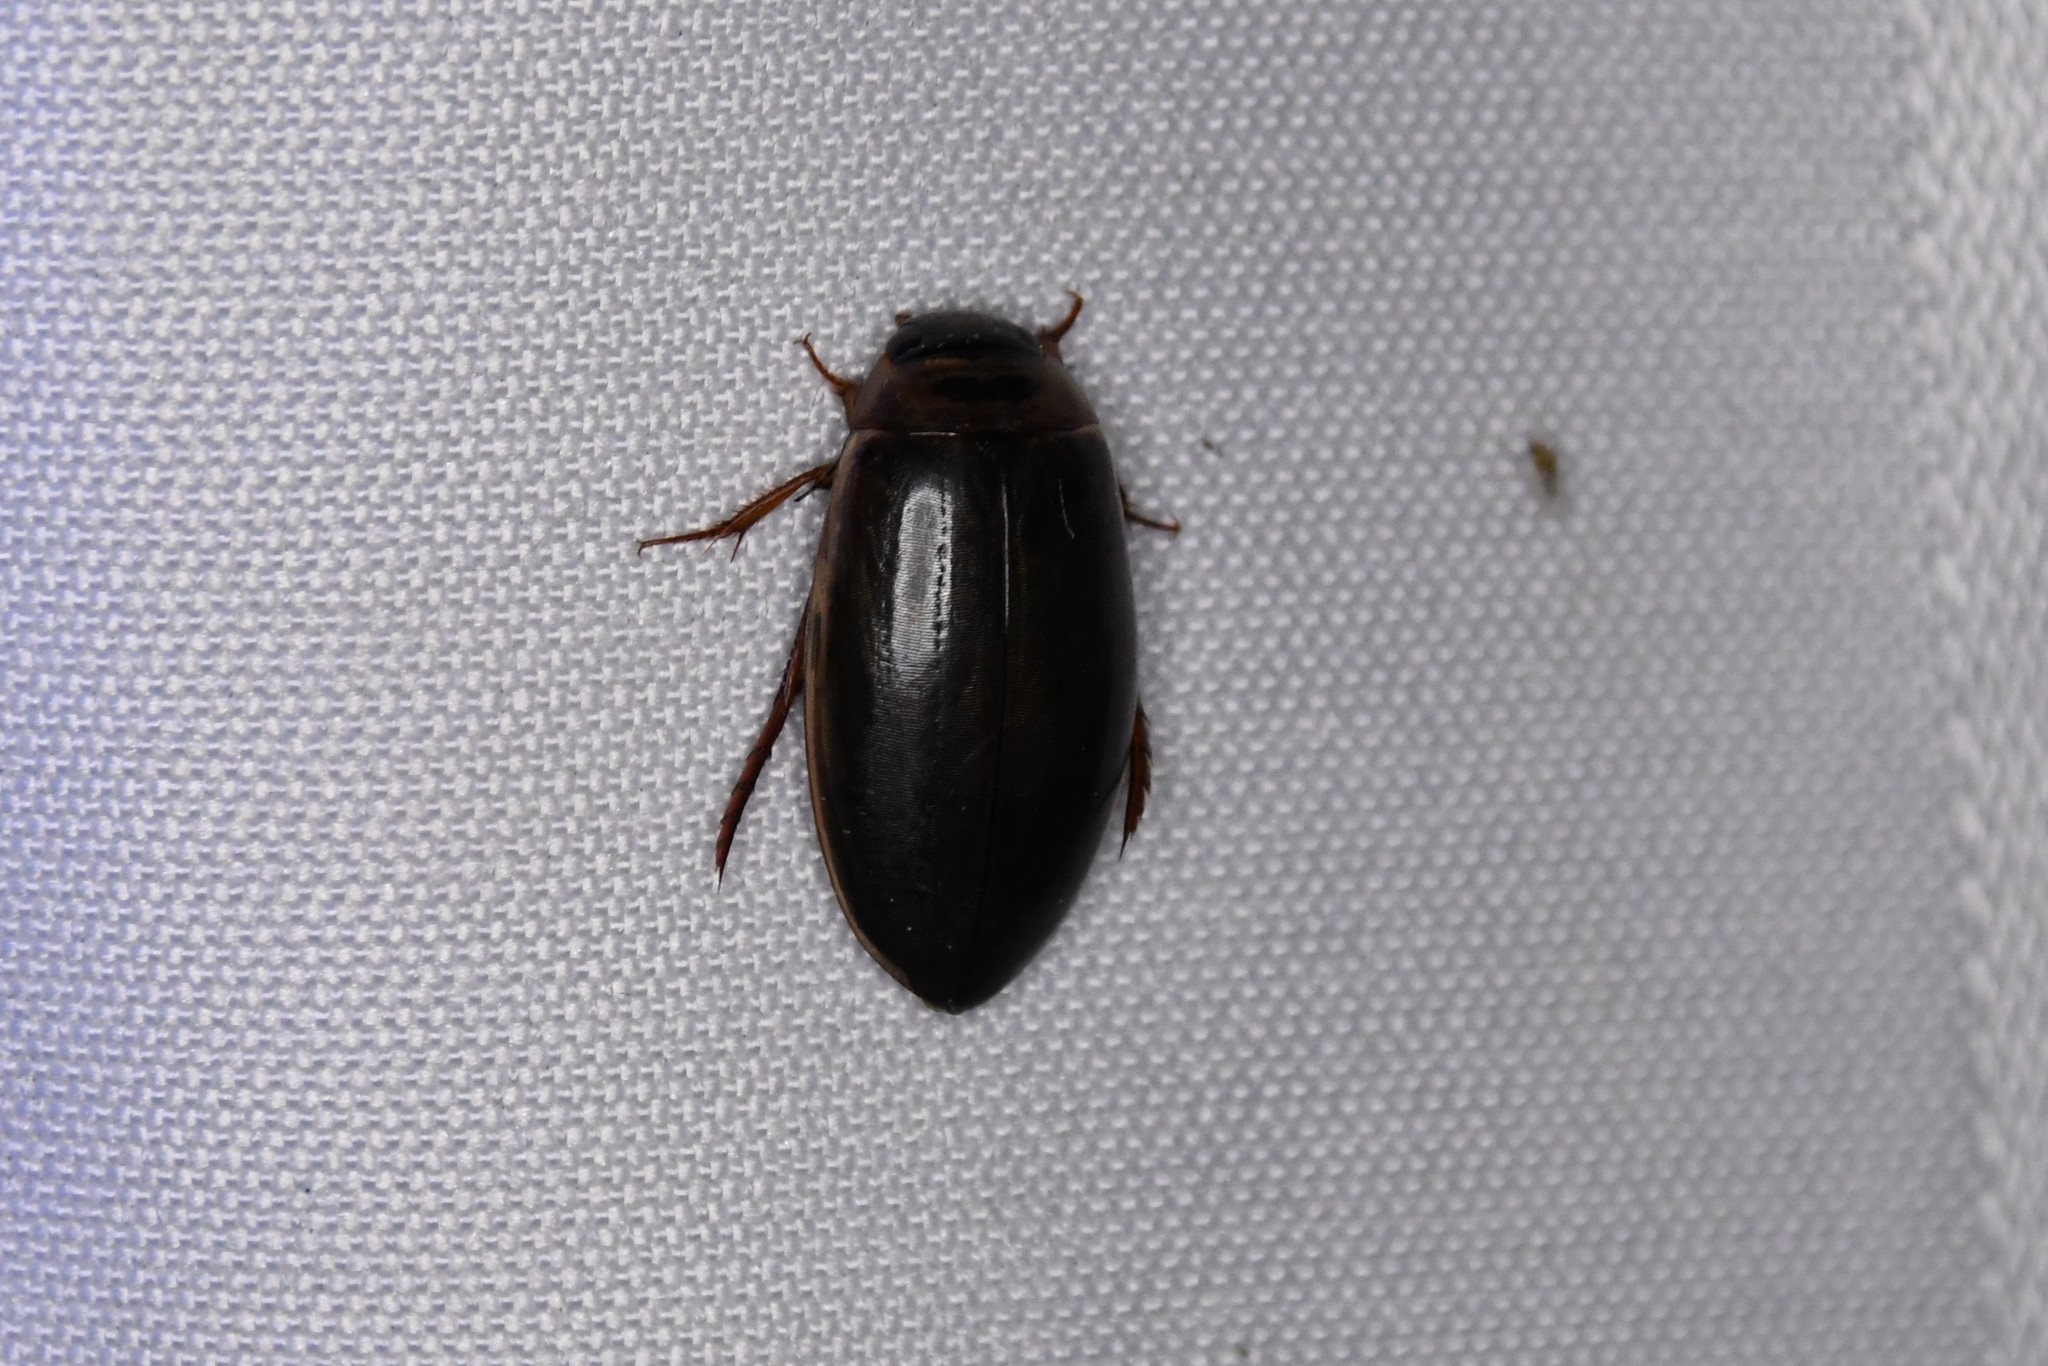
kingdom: Animalia
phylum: Arthropoda
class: Insecta
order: Coleoptera
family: Dytiscidae
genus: Colymbetes
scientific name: Colymbetes sculptilis
